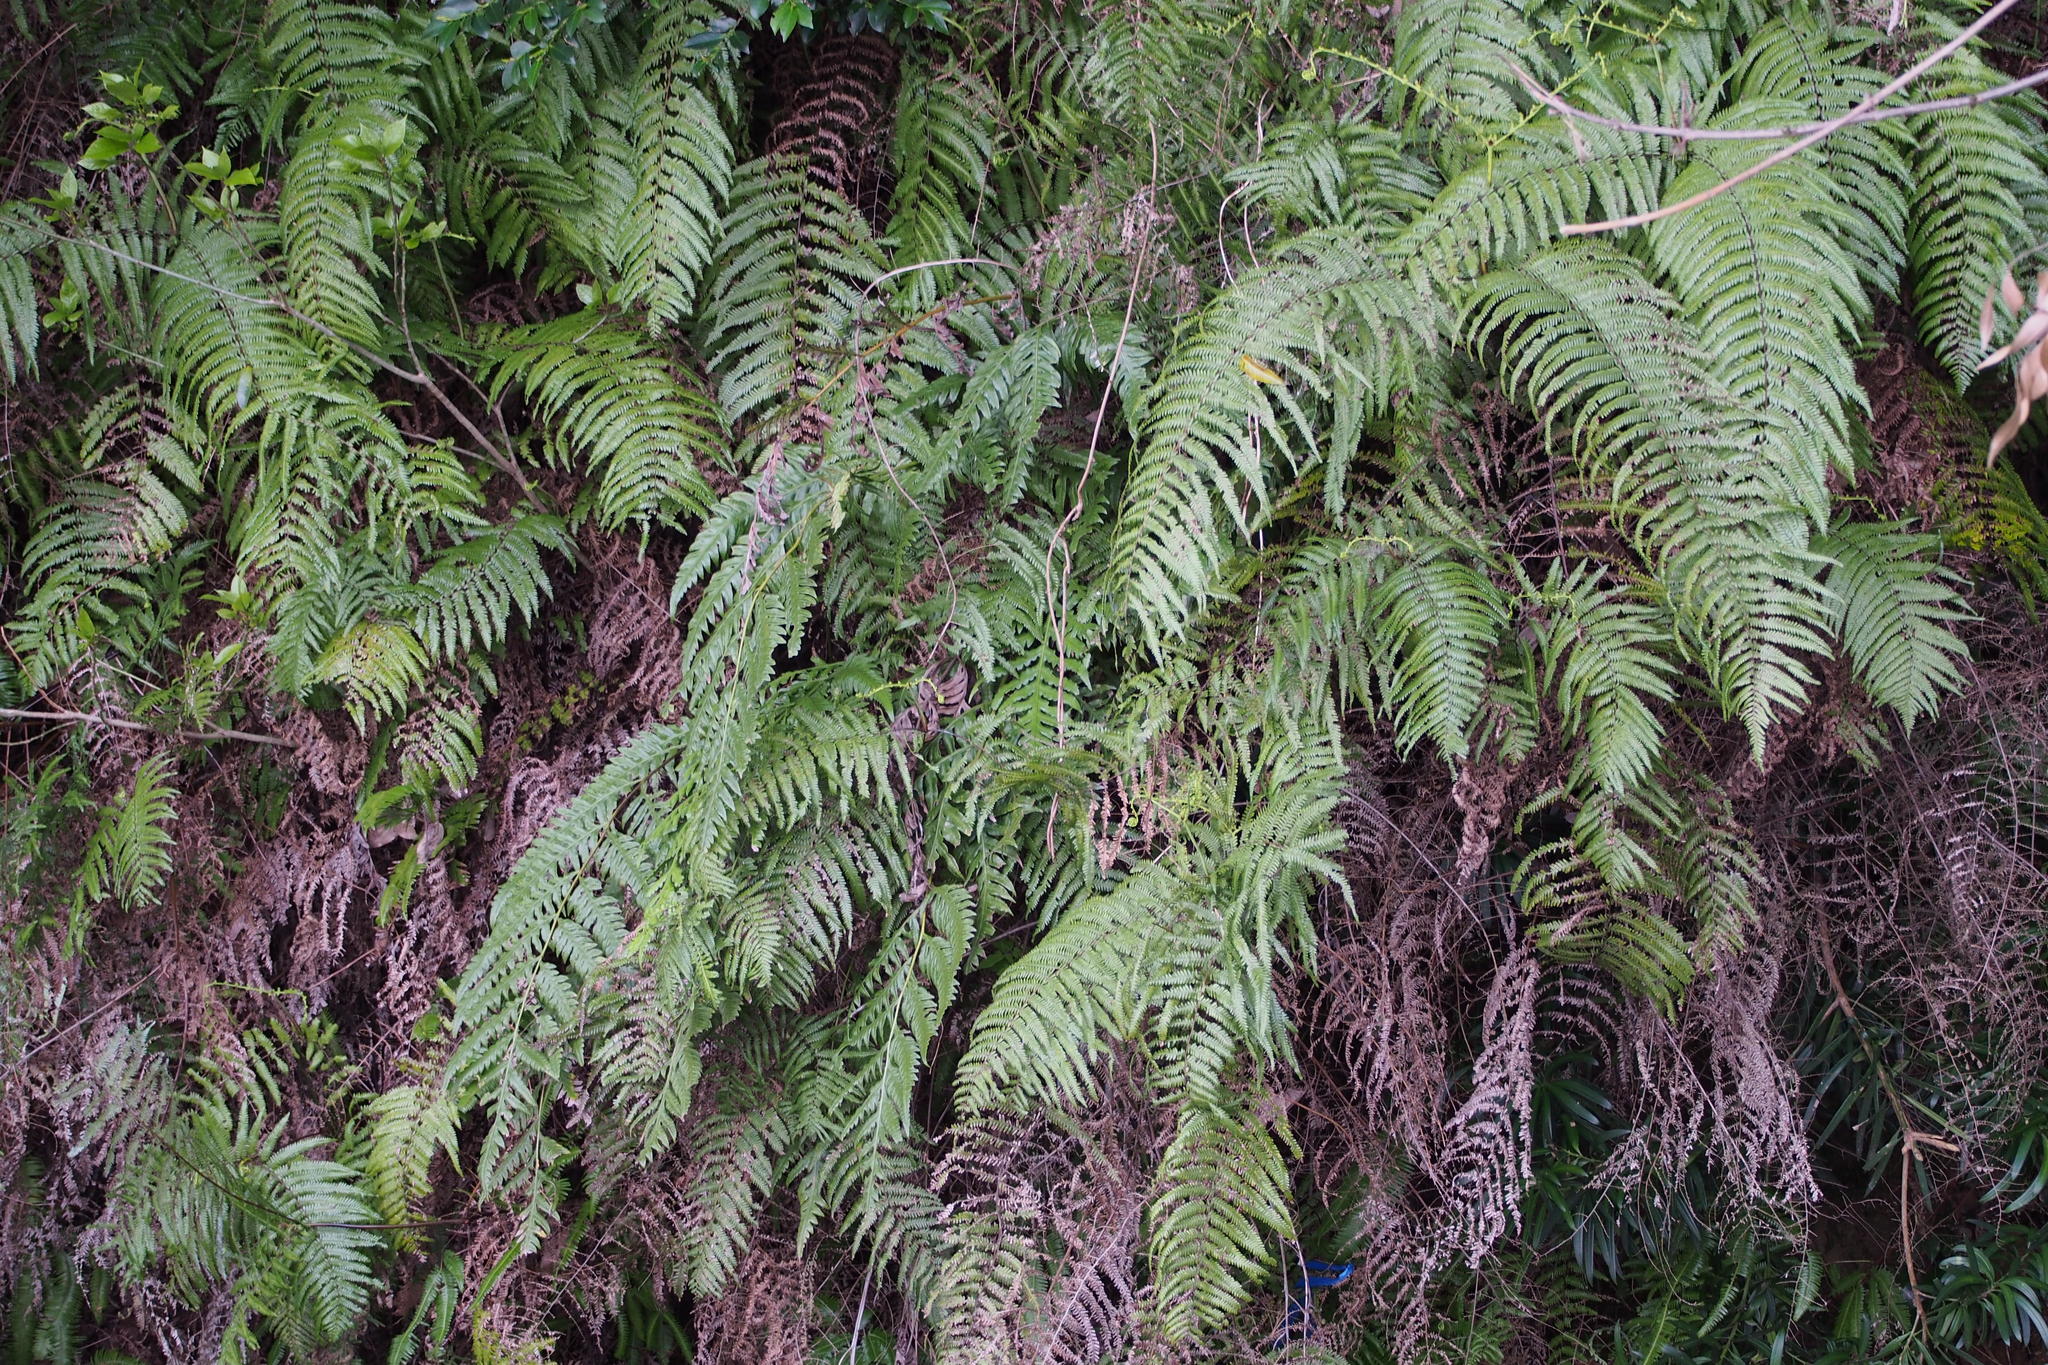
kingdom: Plantae
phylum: Tracheophyta
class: Polypodiopsida
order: Gleicheniales
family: Gleicheniaceae
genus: Diplopterygium
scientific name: Diplopterygium glaucum
